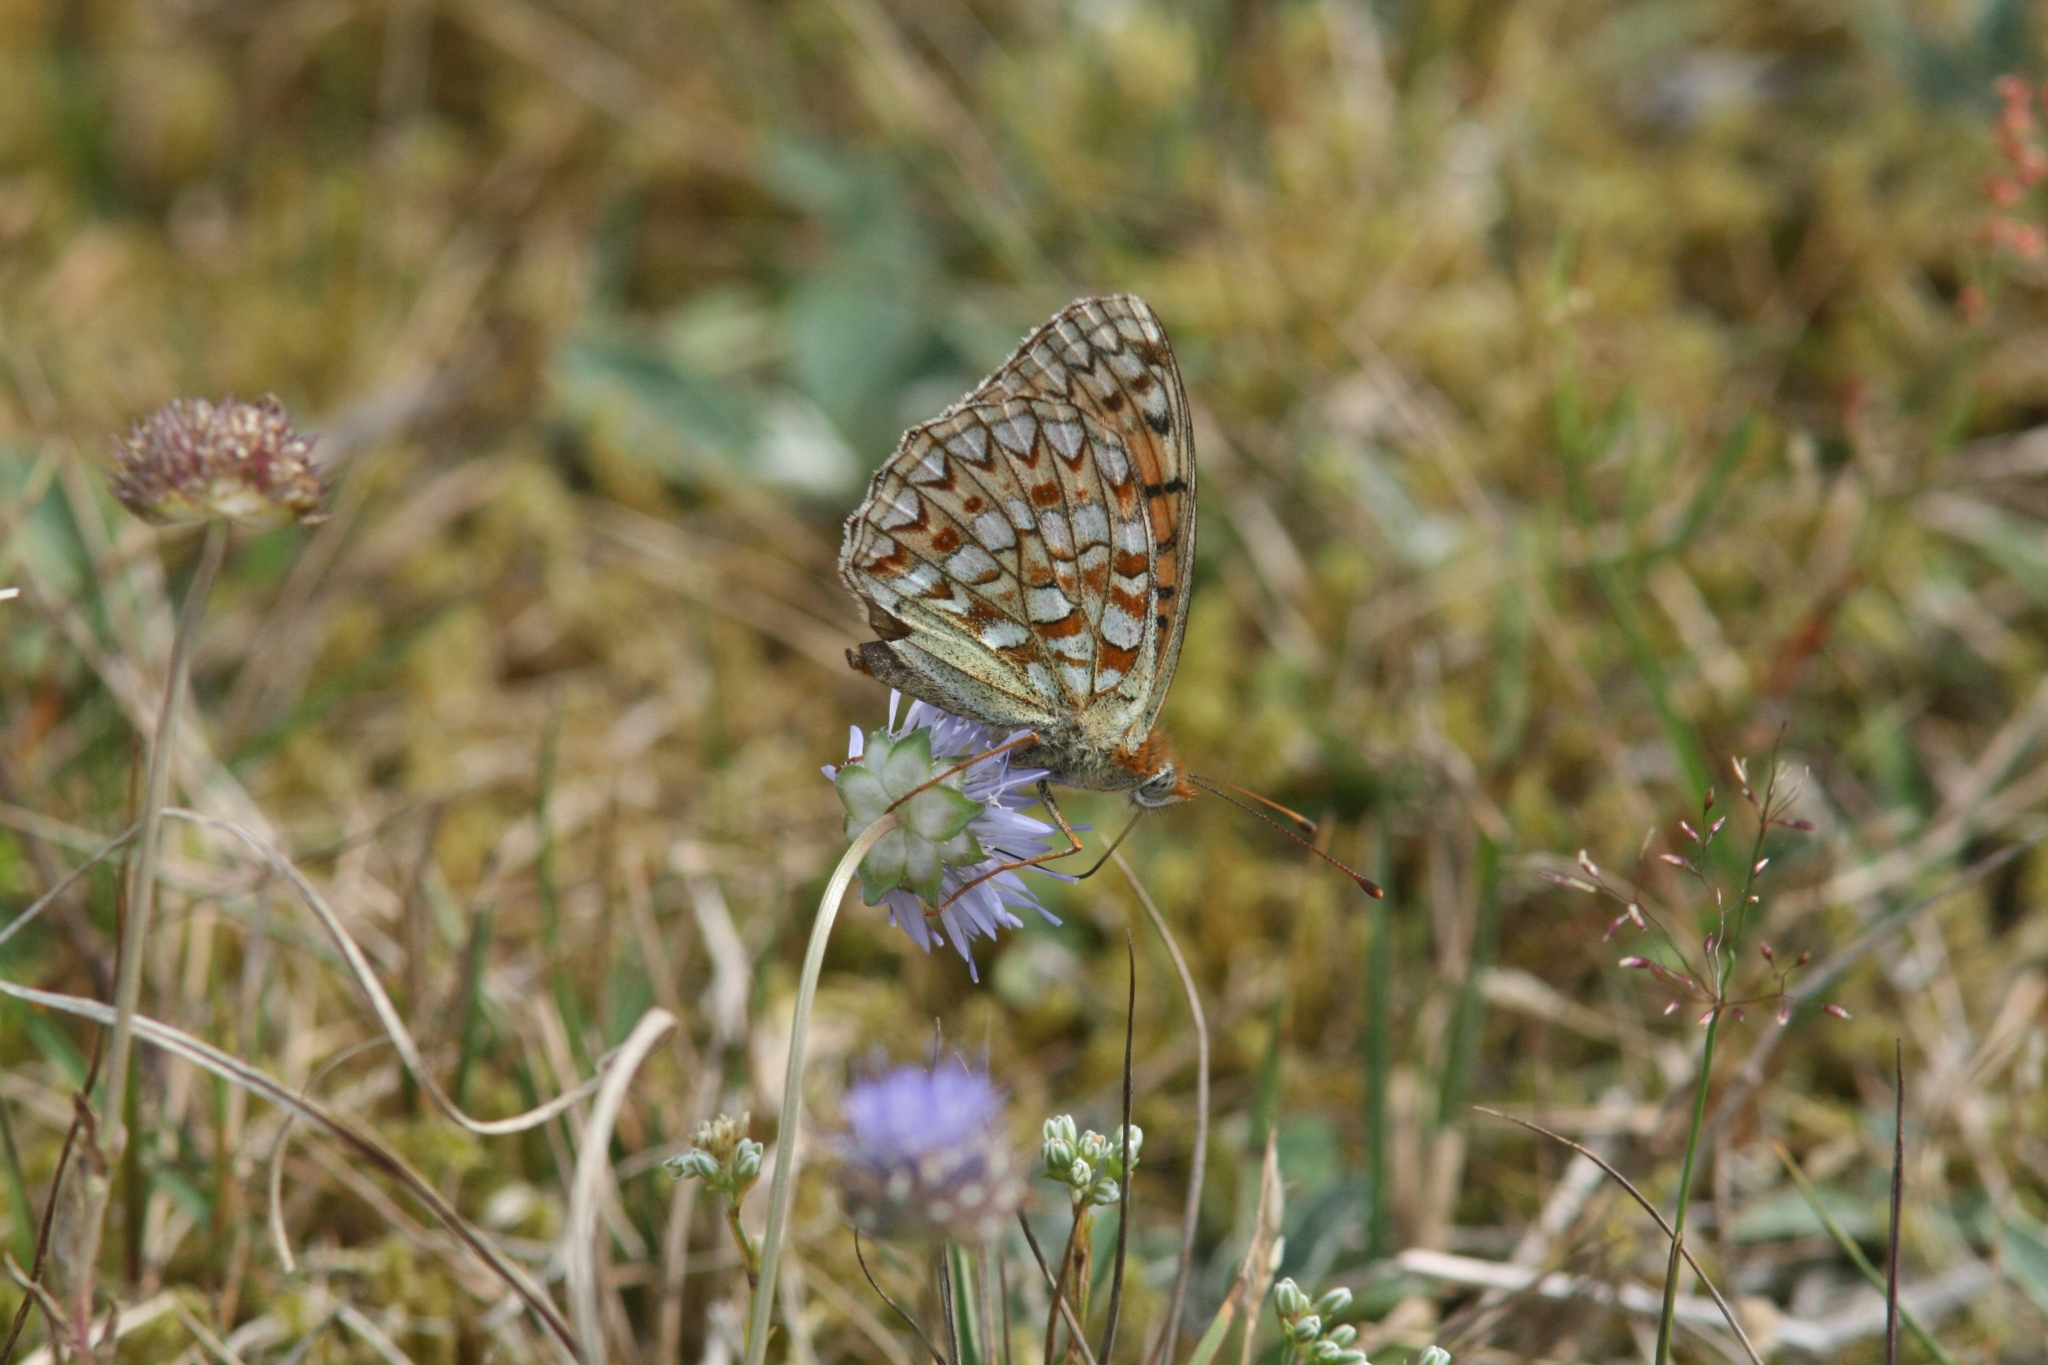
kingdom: Animalia
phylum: Arthropoda
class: Insecta
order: Lepidoptera
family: Nymphalidae
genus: Fabriciana
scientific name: Fabriciana niobe
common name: Niobe fritillary
